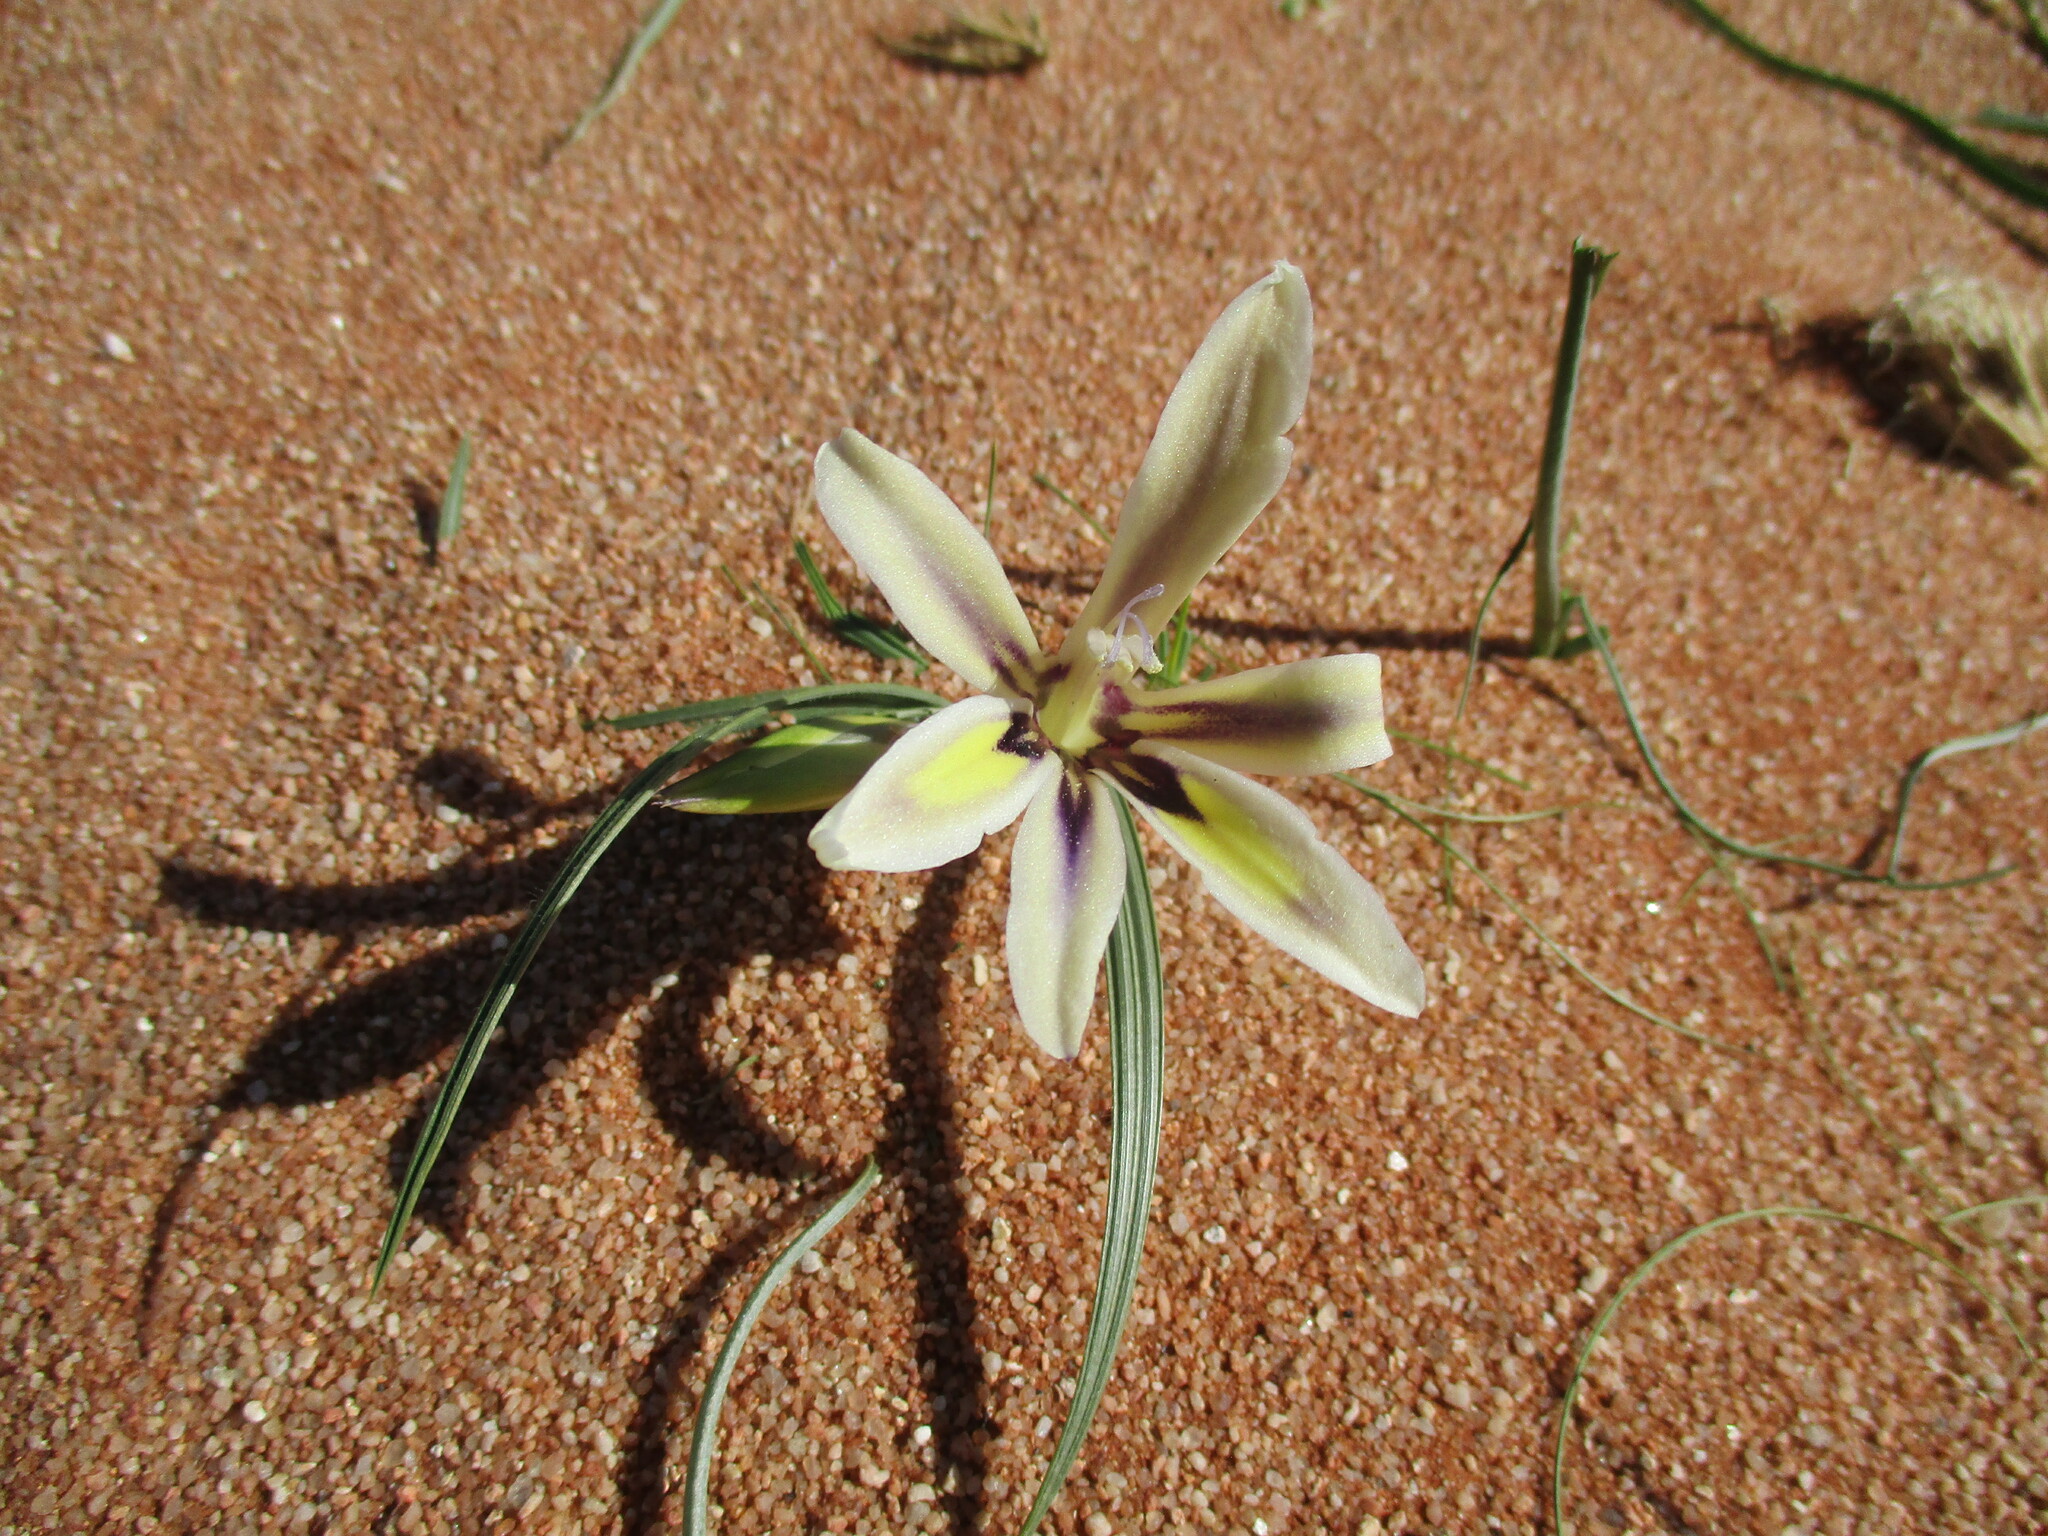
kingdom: Plantae
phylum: Tracheophyta
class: Liliopsida
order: Asparagales
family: Iridaceae
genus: Babiana
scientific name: Babiana hypogaea
